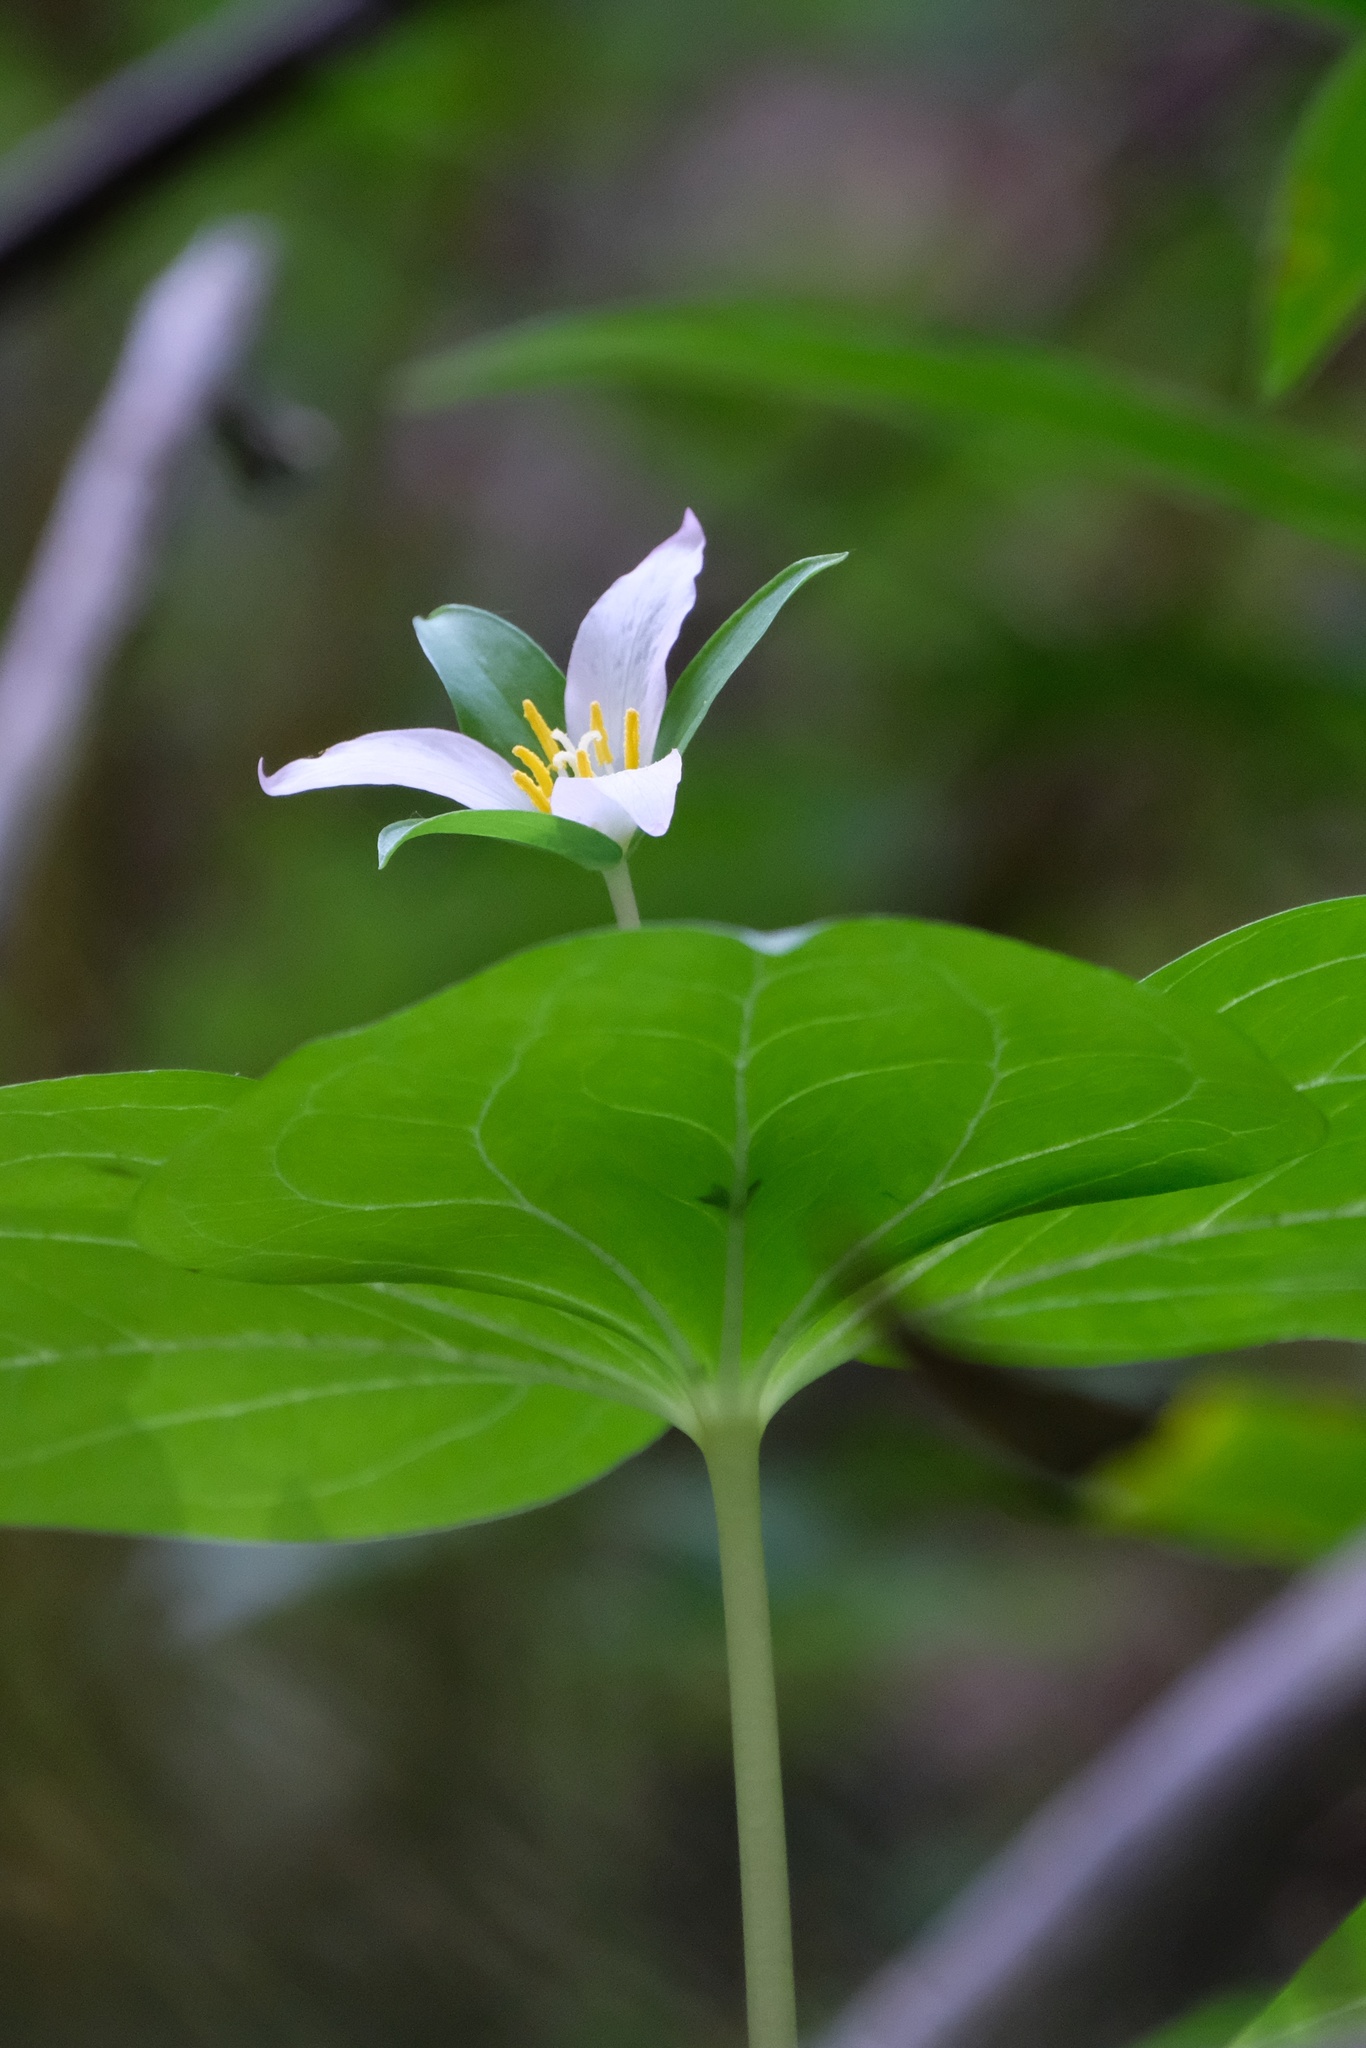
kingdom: Plantae
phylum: Tracheophyta
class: Liliopsida
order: Liliales
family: Melanthiaceae
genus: Trillium
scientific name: Trillium ovatum
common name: Pacific trillium
